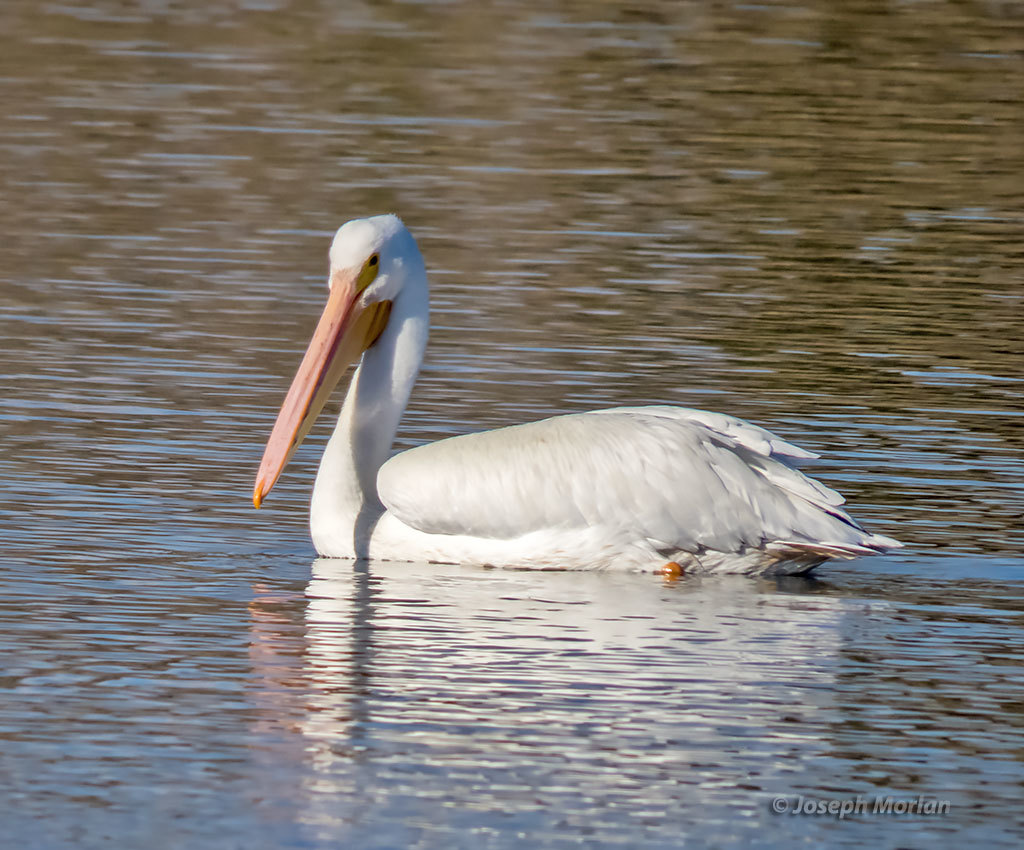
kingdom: Animalia
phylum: Chordata
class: Aves
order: Pelecaniformes
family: Pelecanidae
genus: Pelecanus
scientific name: Pelecanus erythrorhynchos
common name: American white pelican
